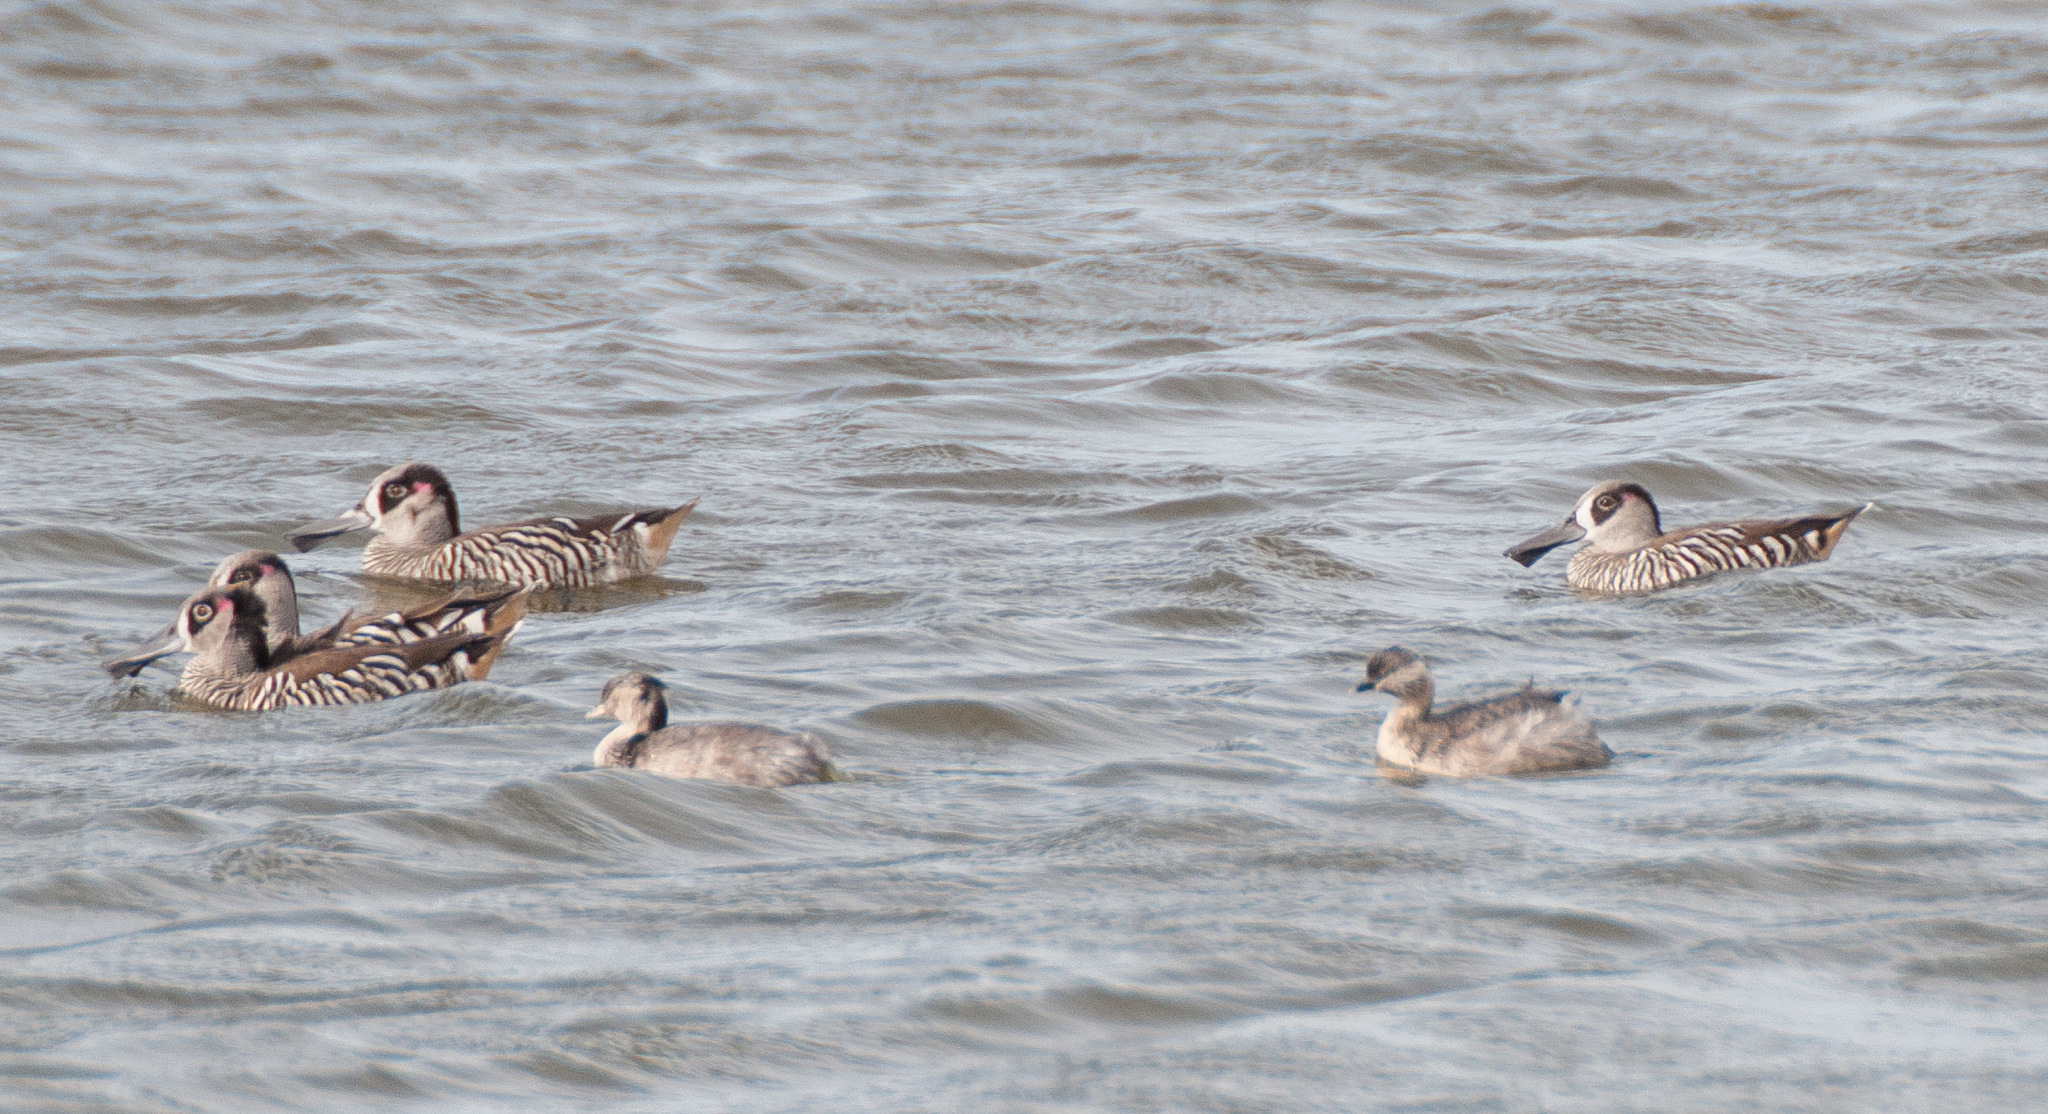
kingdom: Animalia
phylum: Chordata
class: Aves
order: Anseriformes
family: Anatidae
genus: Malacorhynchus
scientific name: Malacorhynchus membranaceus
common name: Pink-eared duck
